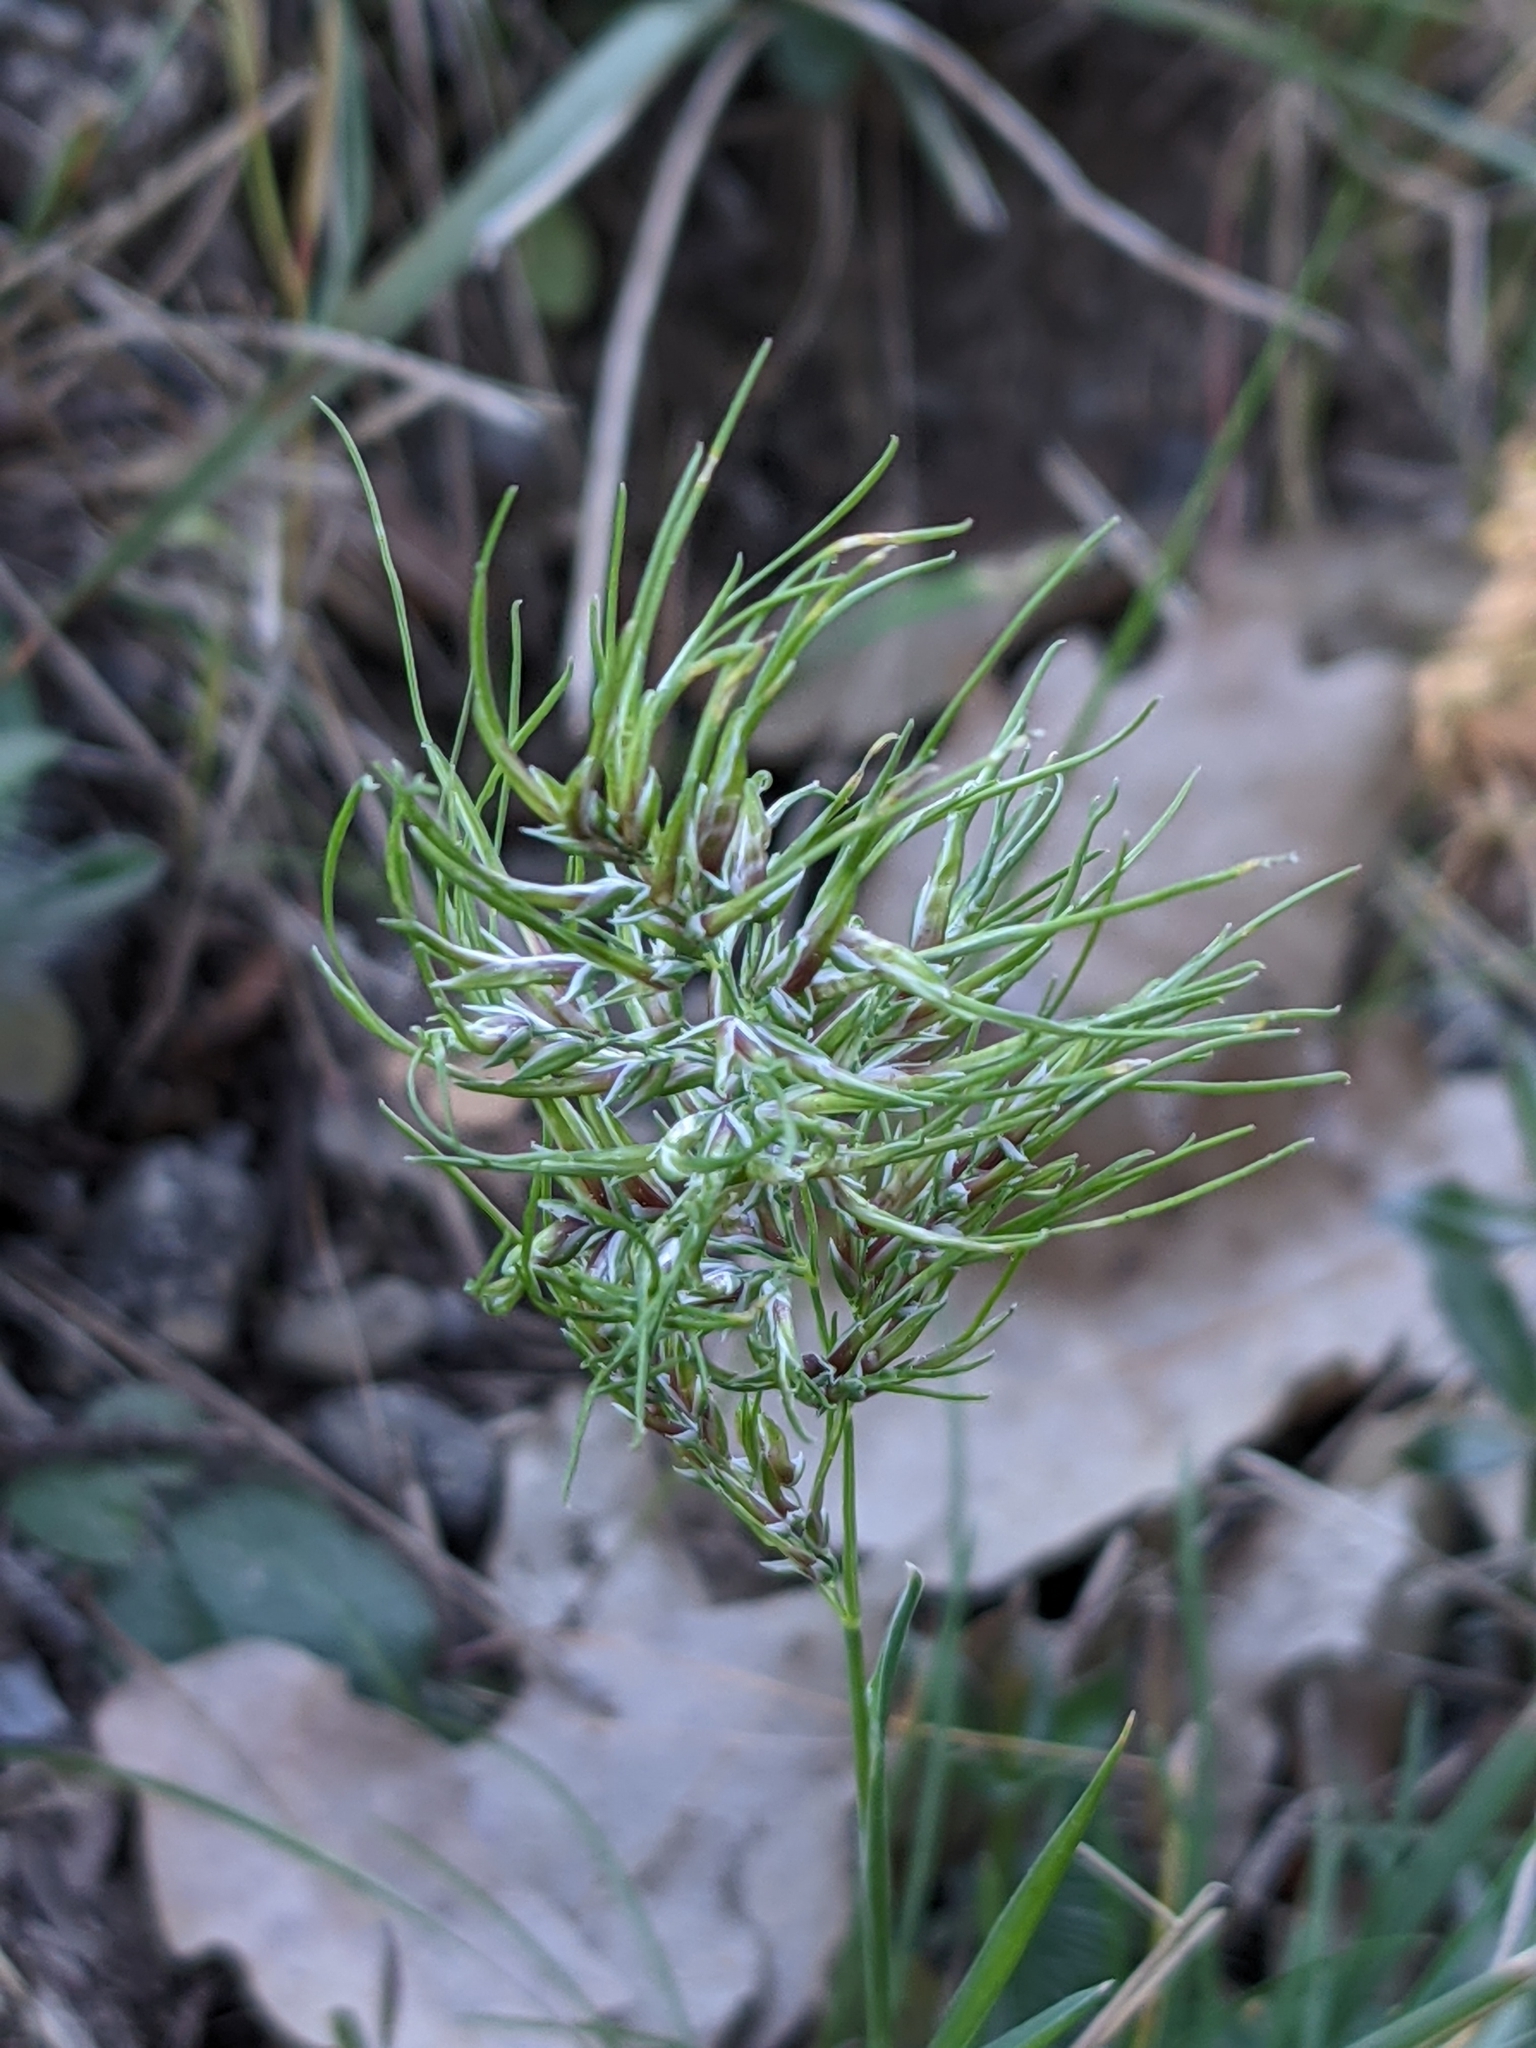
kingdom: Plantae
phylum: Tracheophyta
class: Liliopsida
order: Poales
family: Poaceae
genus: Poa
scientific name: Poa bulbosa
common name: Bulbous bluegrass
